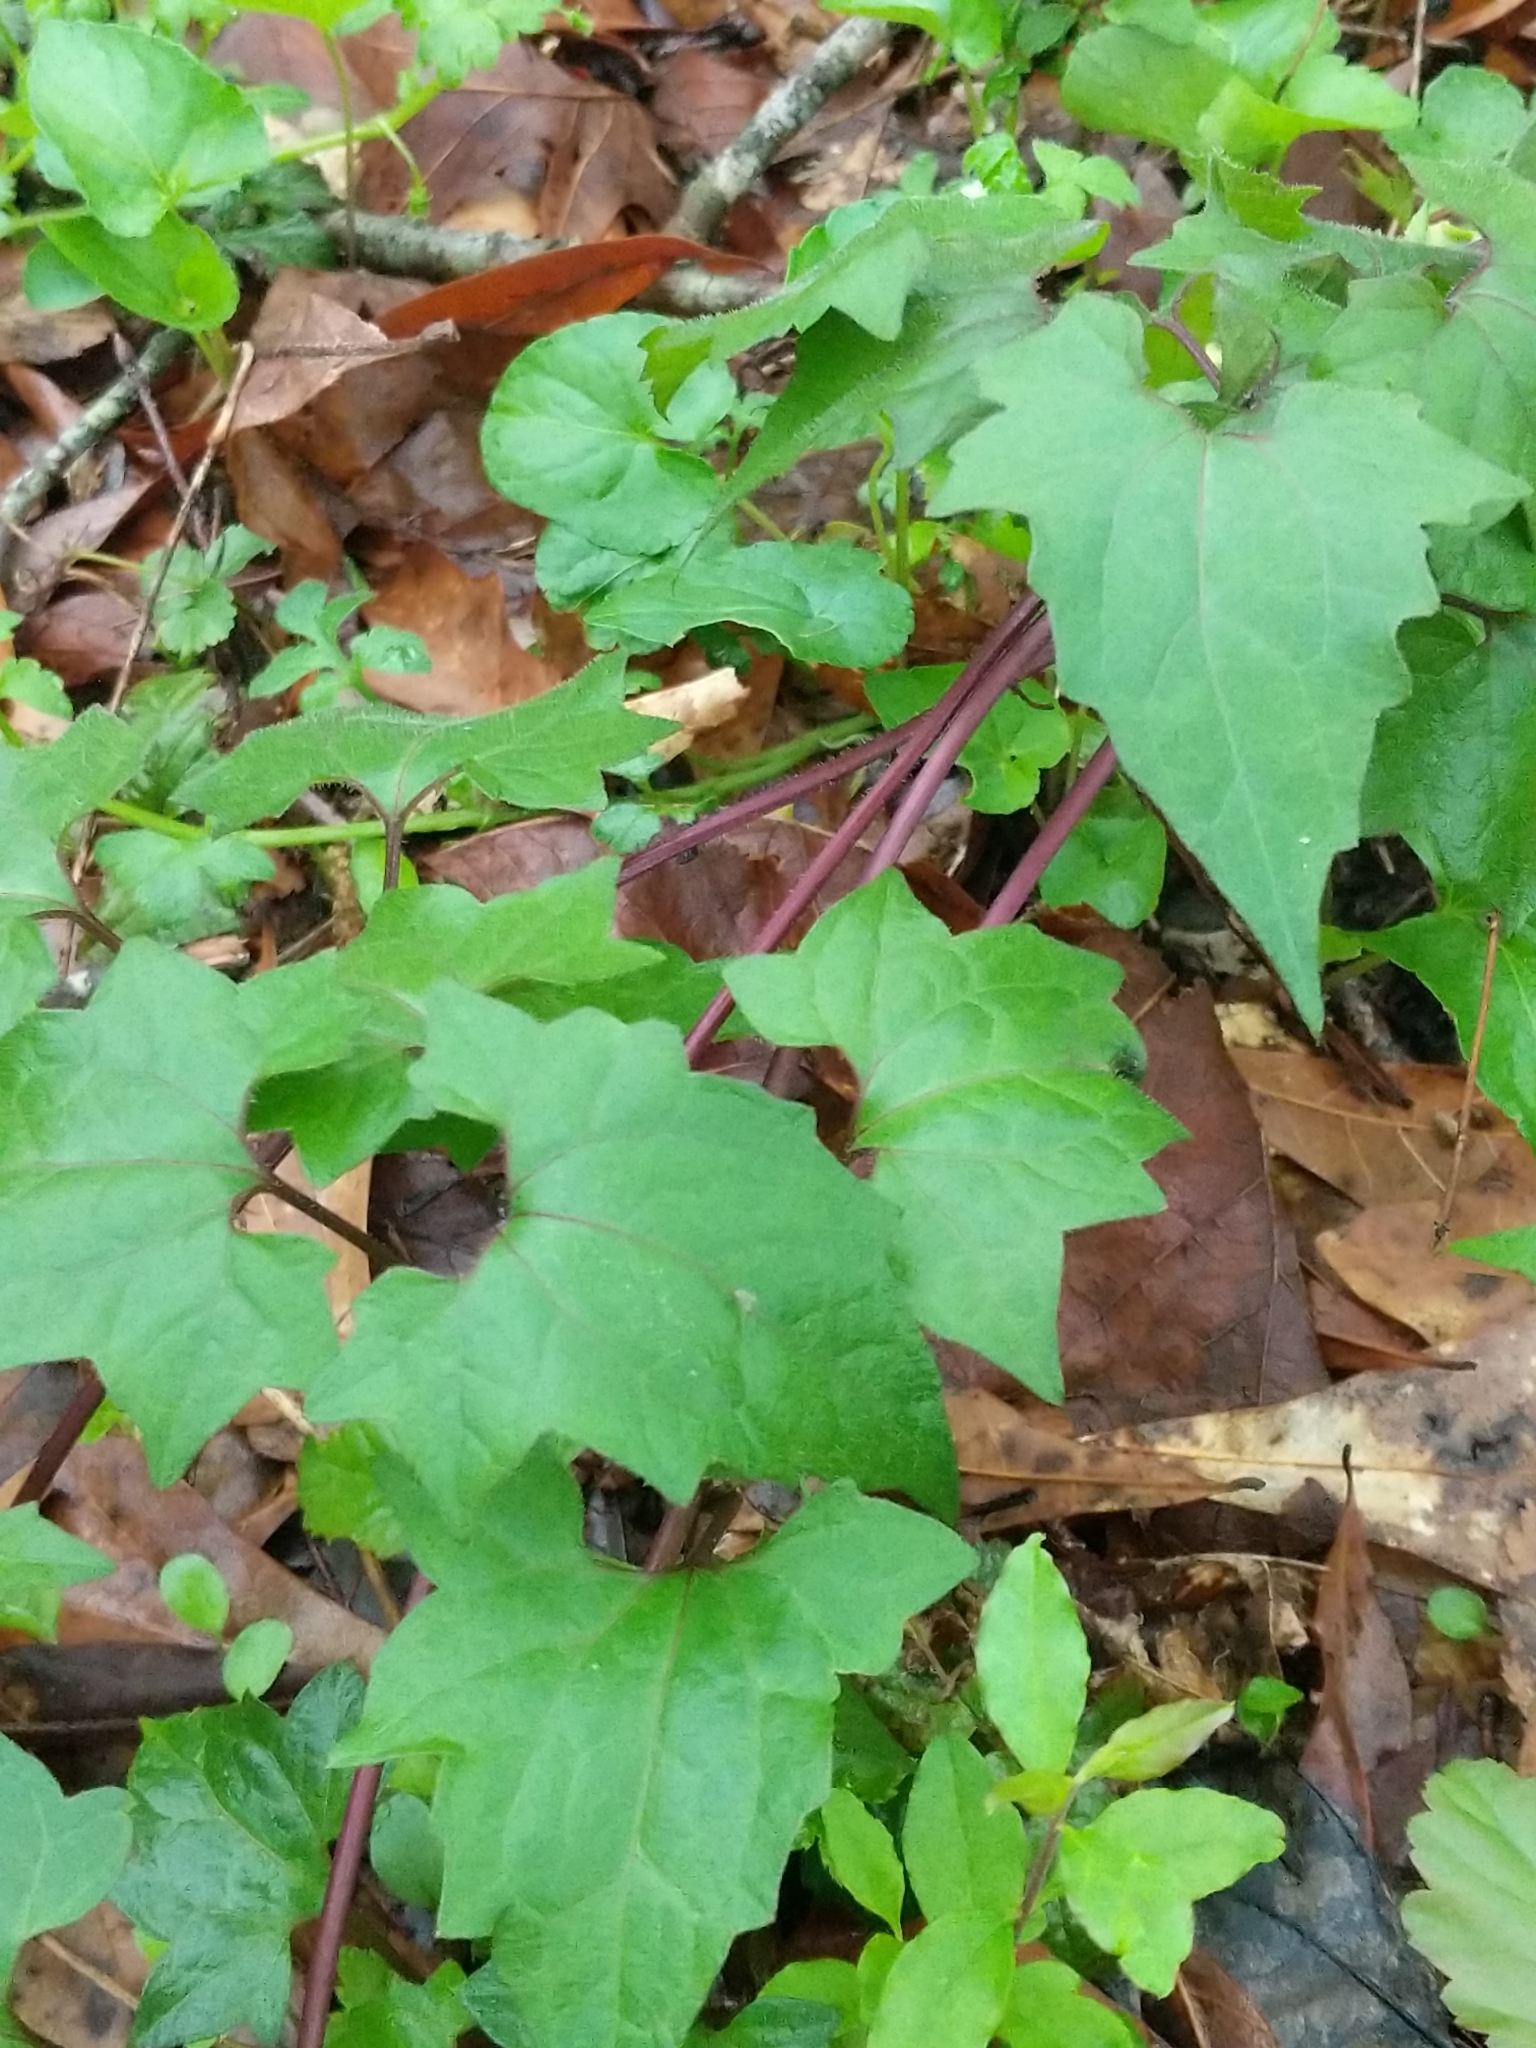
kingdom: Plantae
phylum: Tracheophyta
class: Magnoliopsida
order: Asterales
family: Asteraceae
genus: Mikania
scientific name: Mikania scandens
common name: Climbing hempvine
